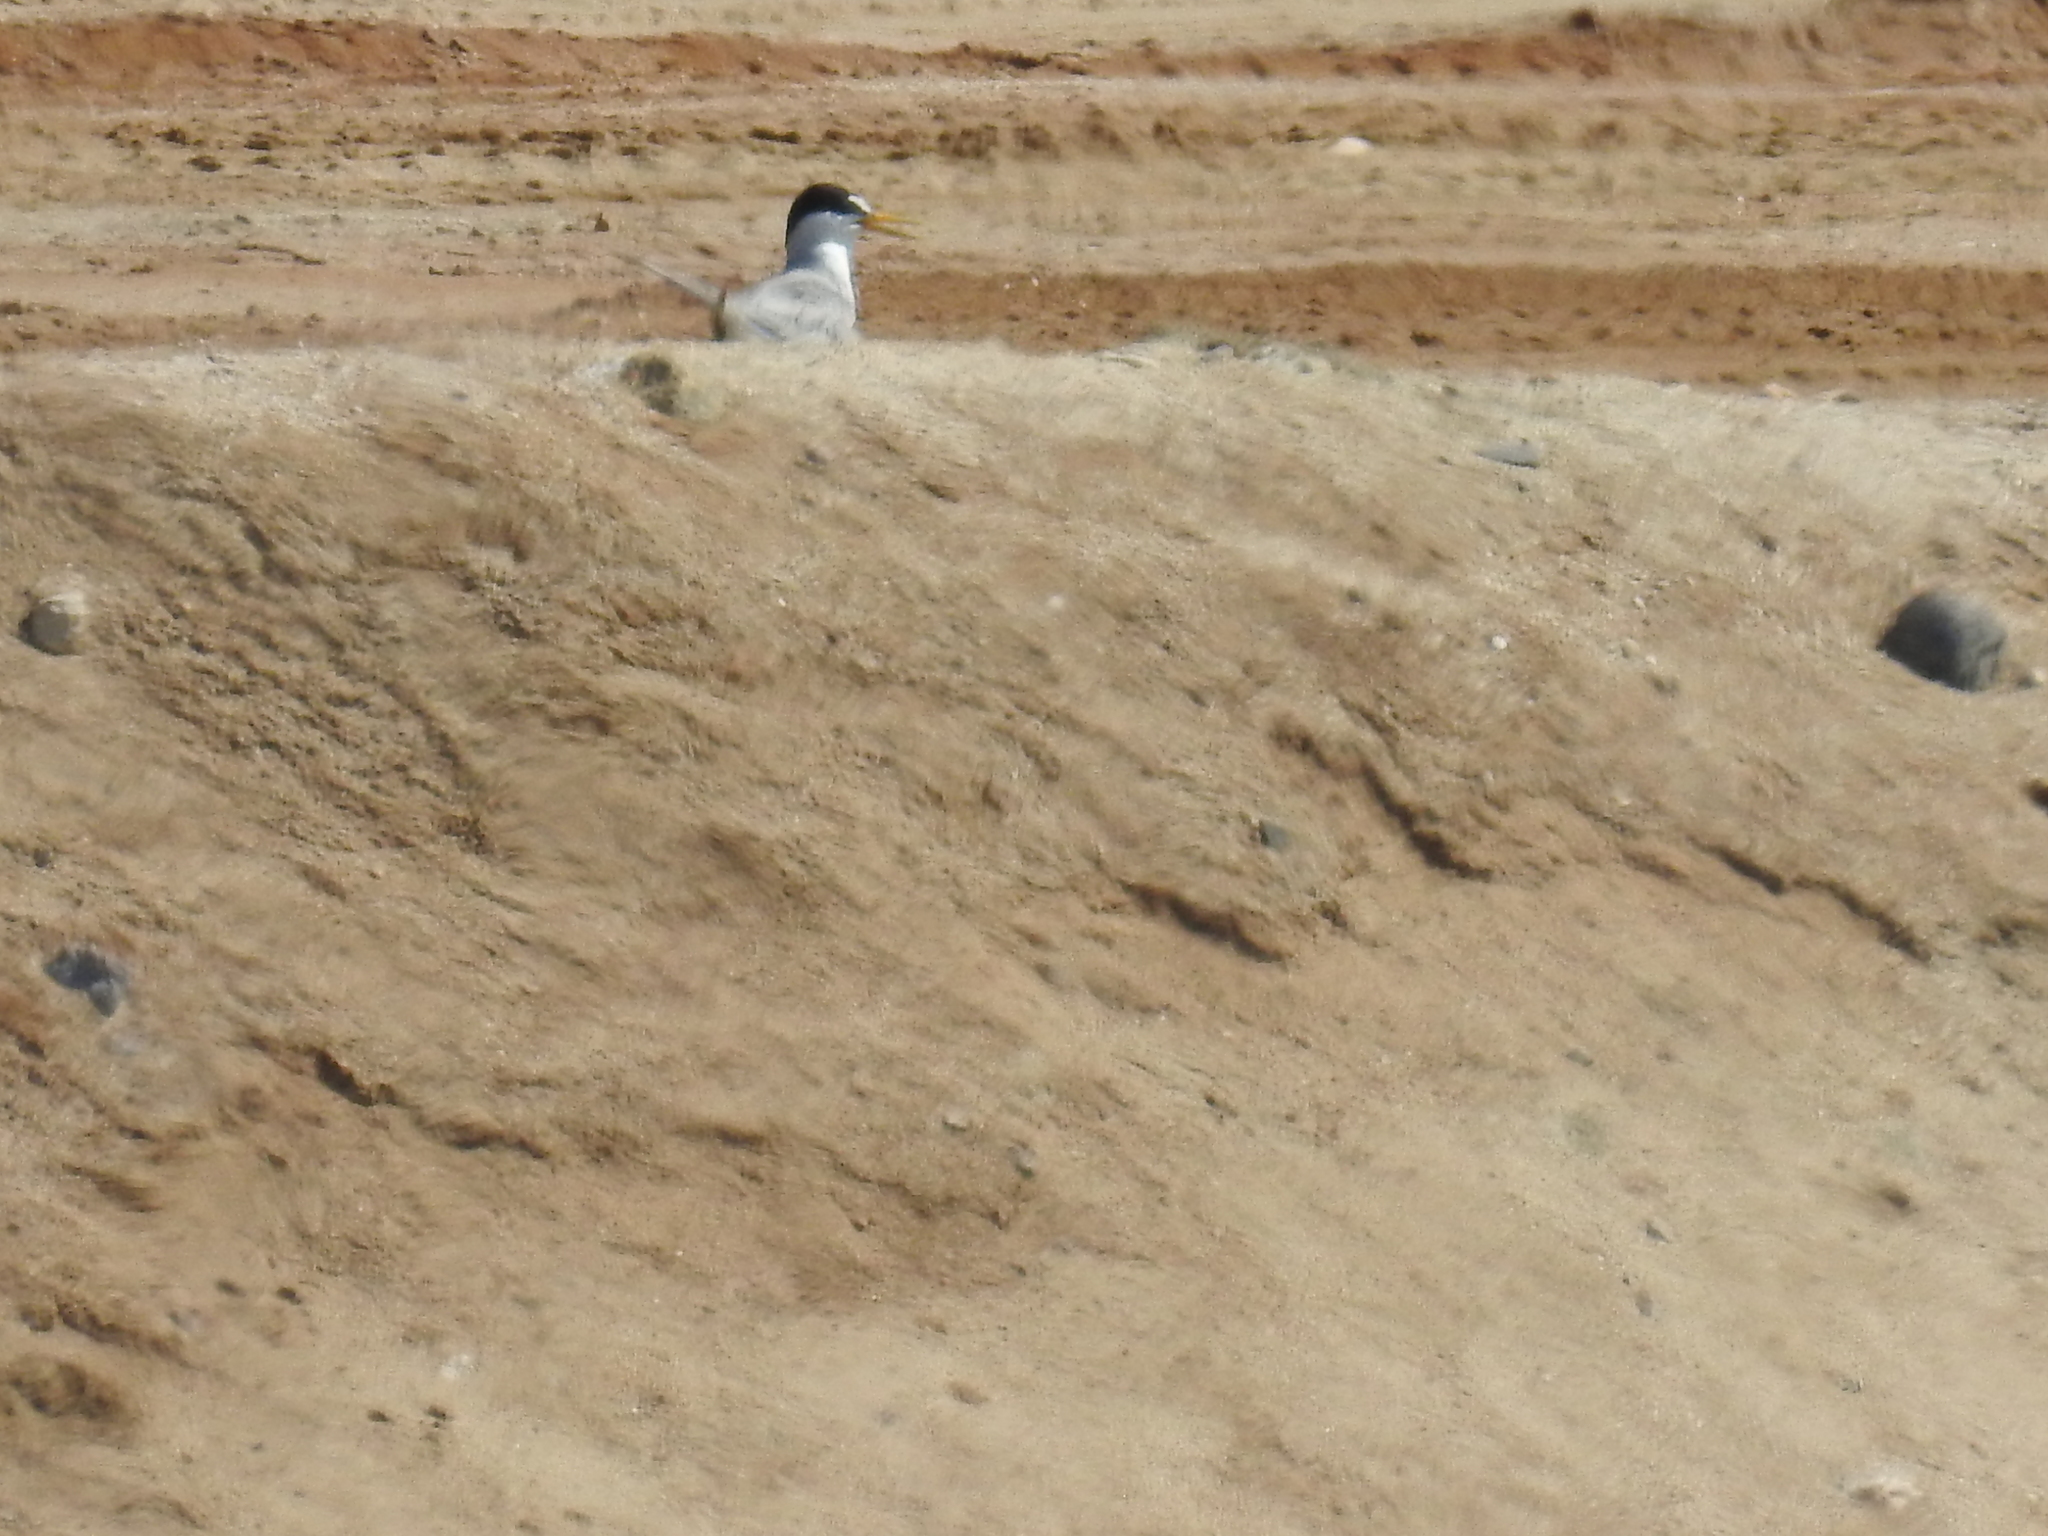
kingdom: Animalia
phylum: Chordata
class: Aves
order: Charadriiformes
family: Laridae
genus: Sternula
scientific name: Sternula antillarum
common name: Least tern
